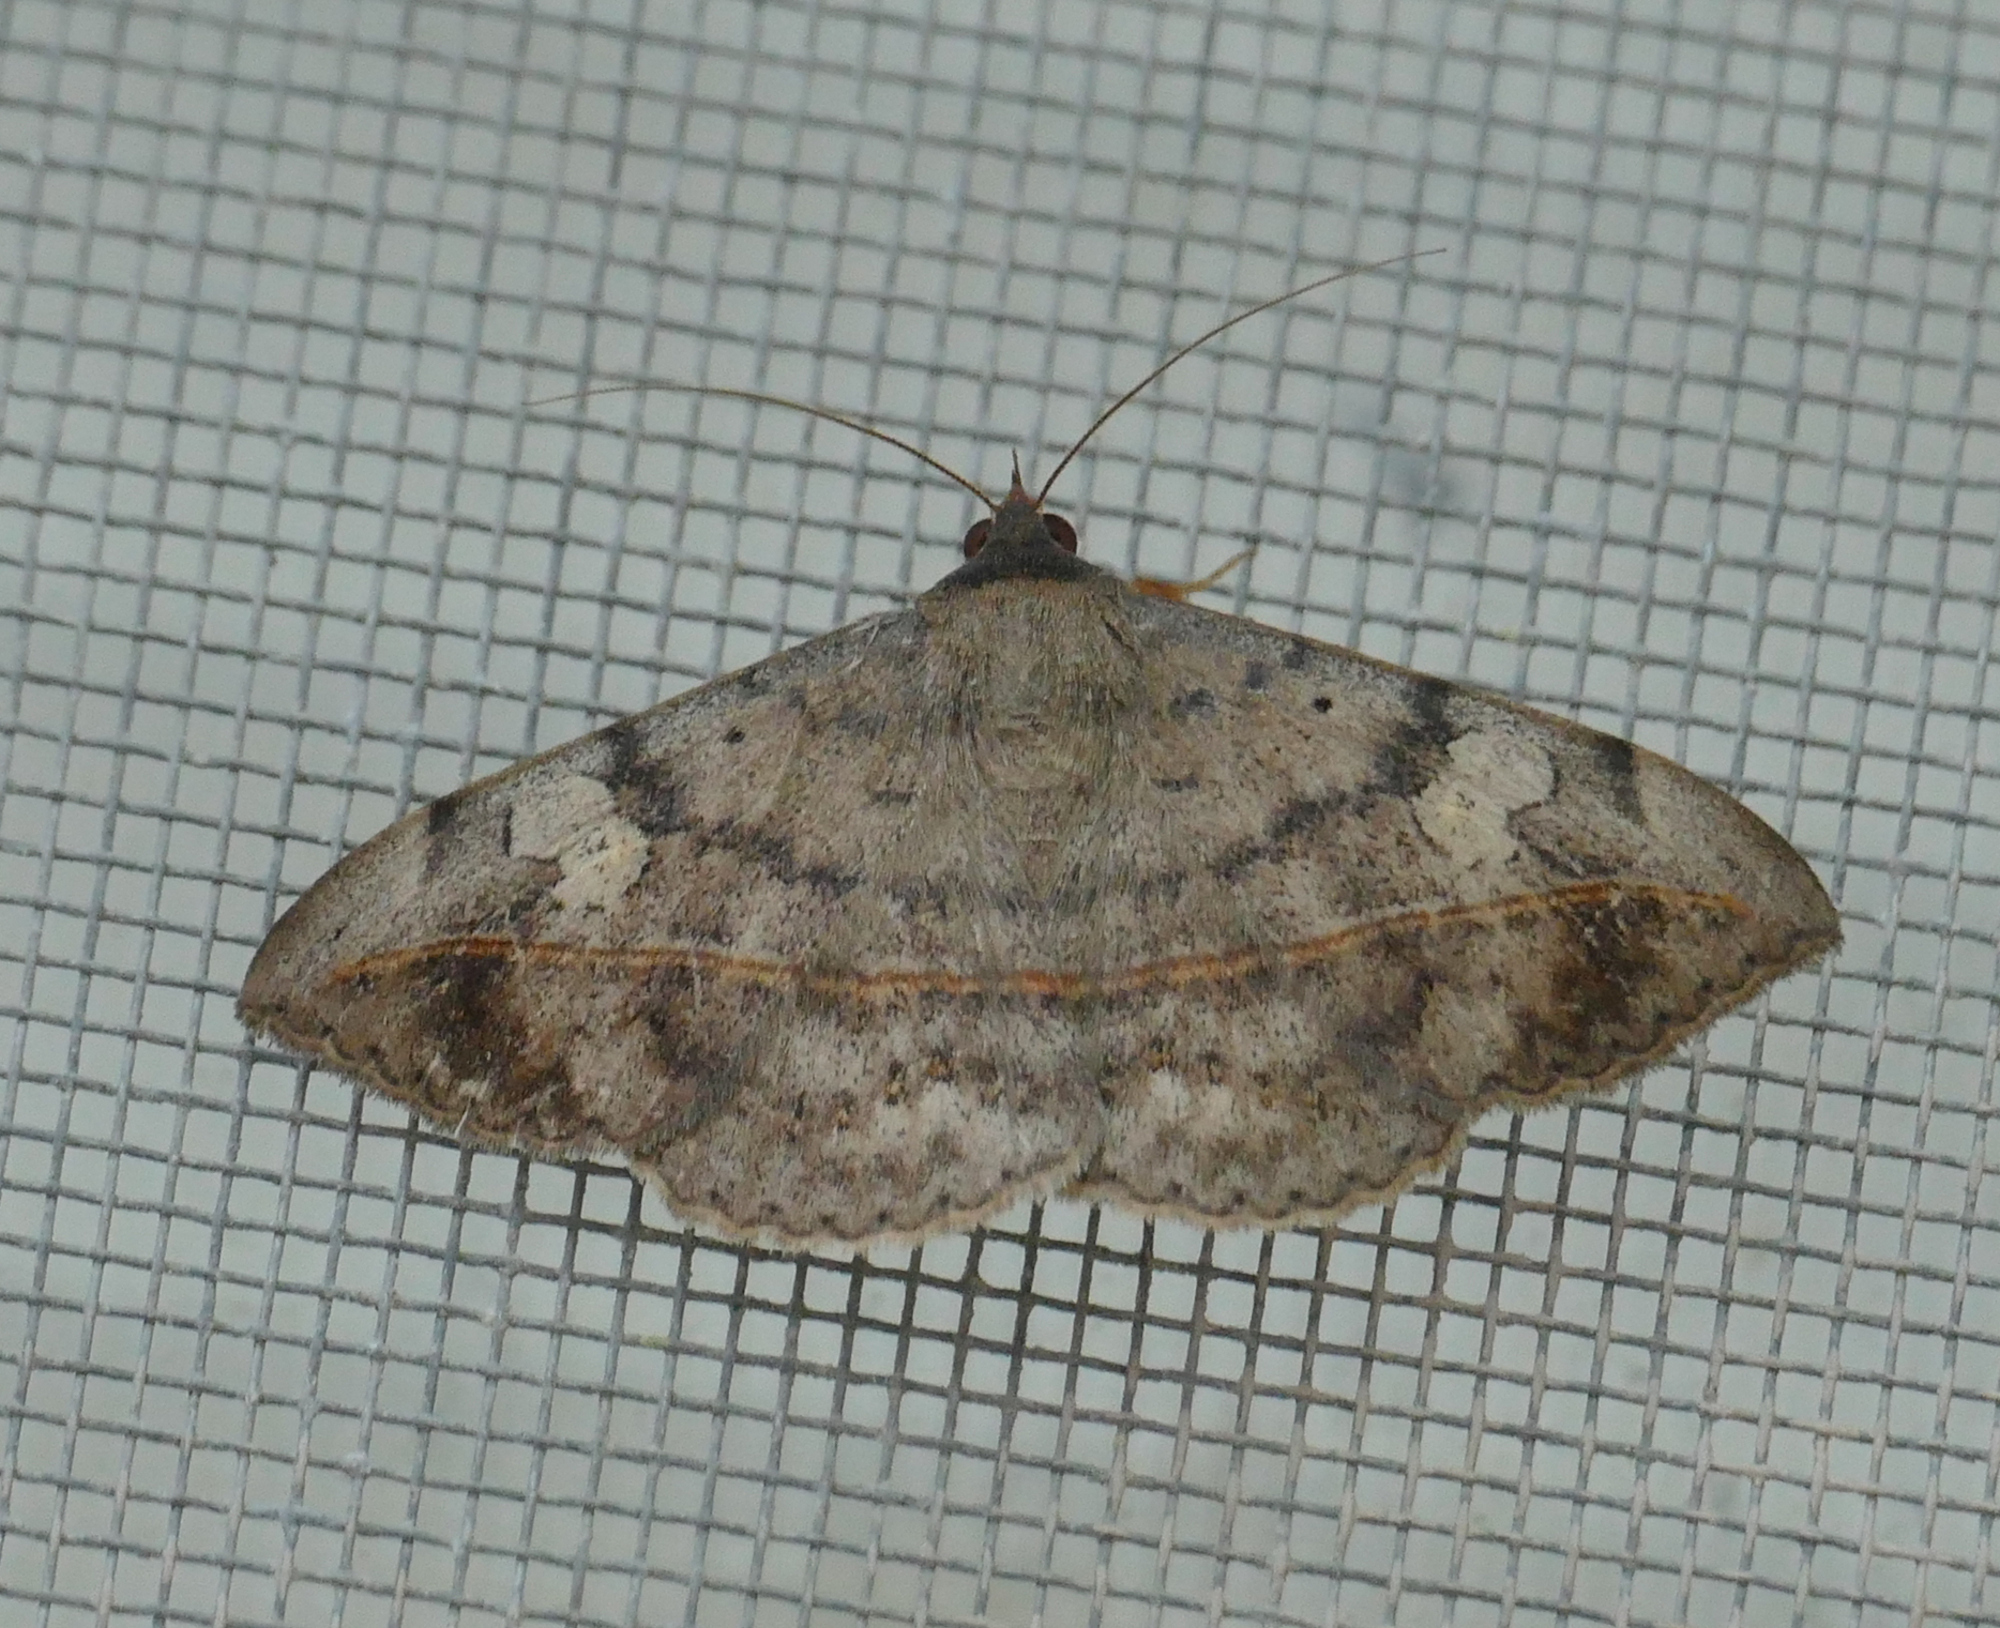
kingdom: Animalia
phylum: Arthropoda
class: Insecta
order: Lepidoptera
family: Erebidae
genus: Anticarsia
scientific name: Anticarsia gemmatalis
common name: Cutworm moth
